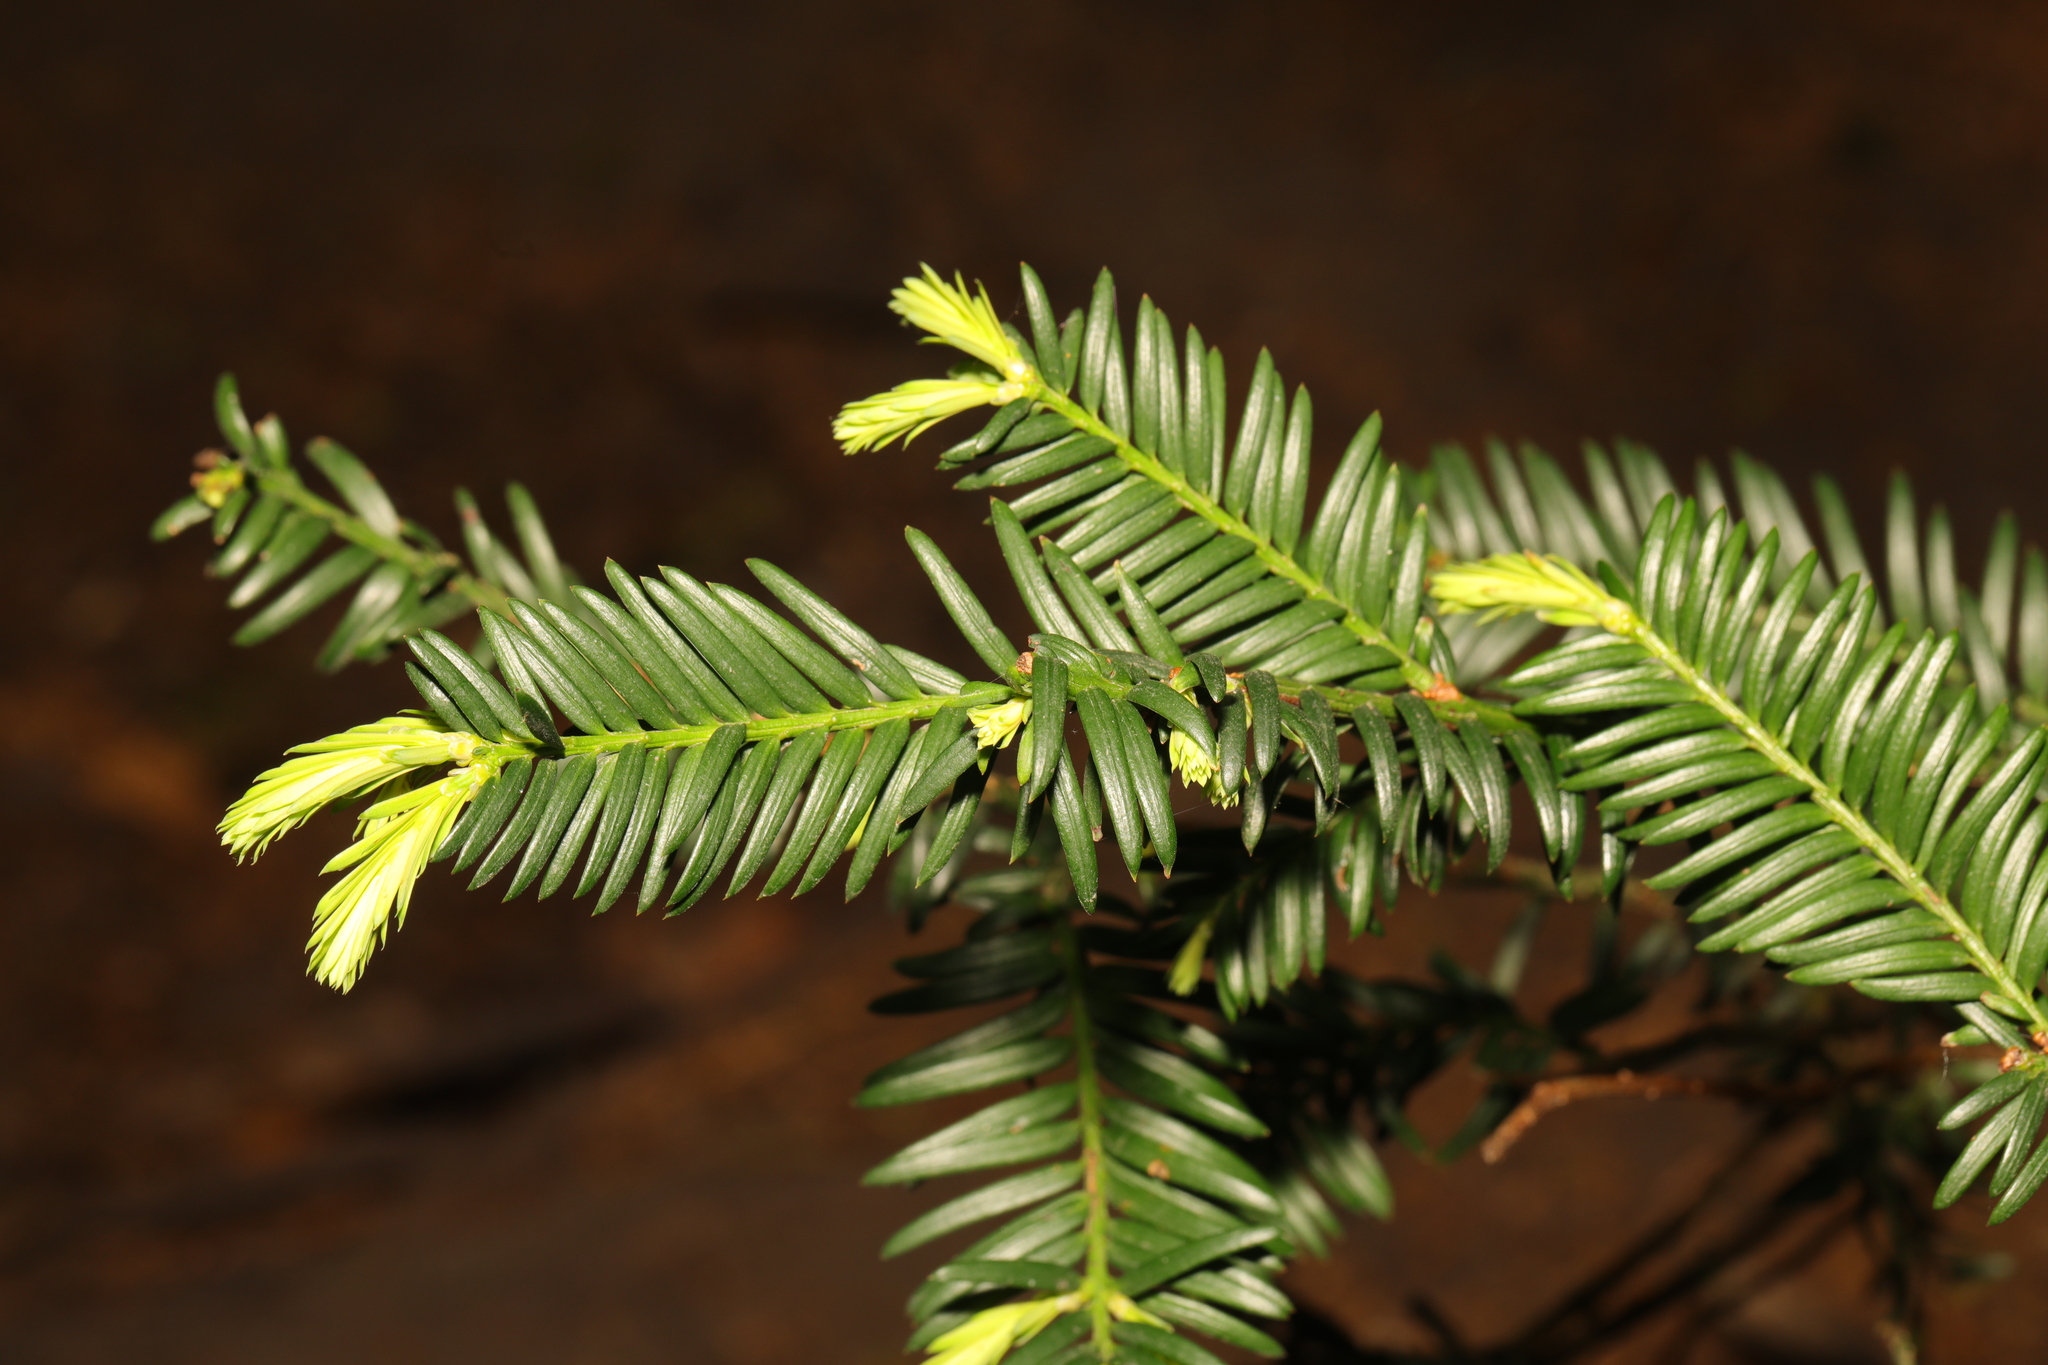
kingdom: Plantae
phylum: Tracheophyta
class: Pinopsida
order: Pinales
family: Taxaceae
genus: Taxus
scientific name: Taxus baccata
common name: Yew
